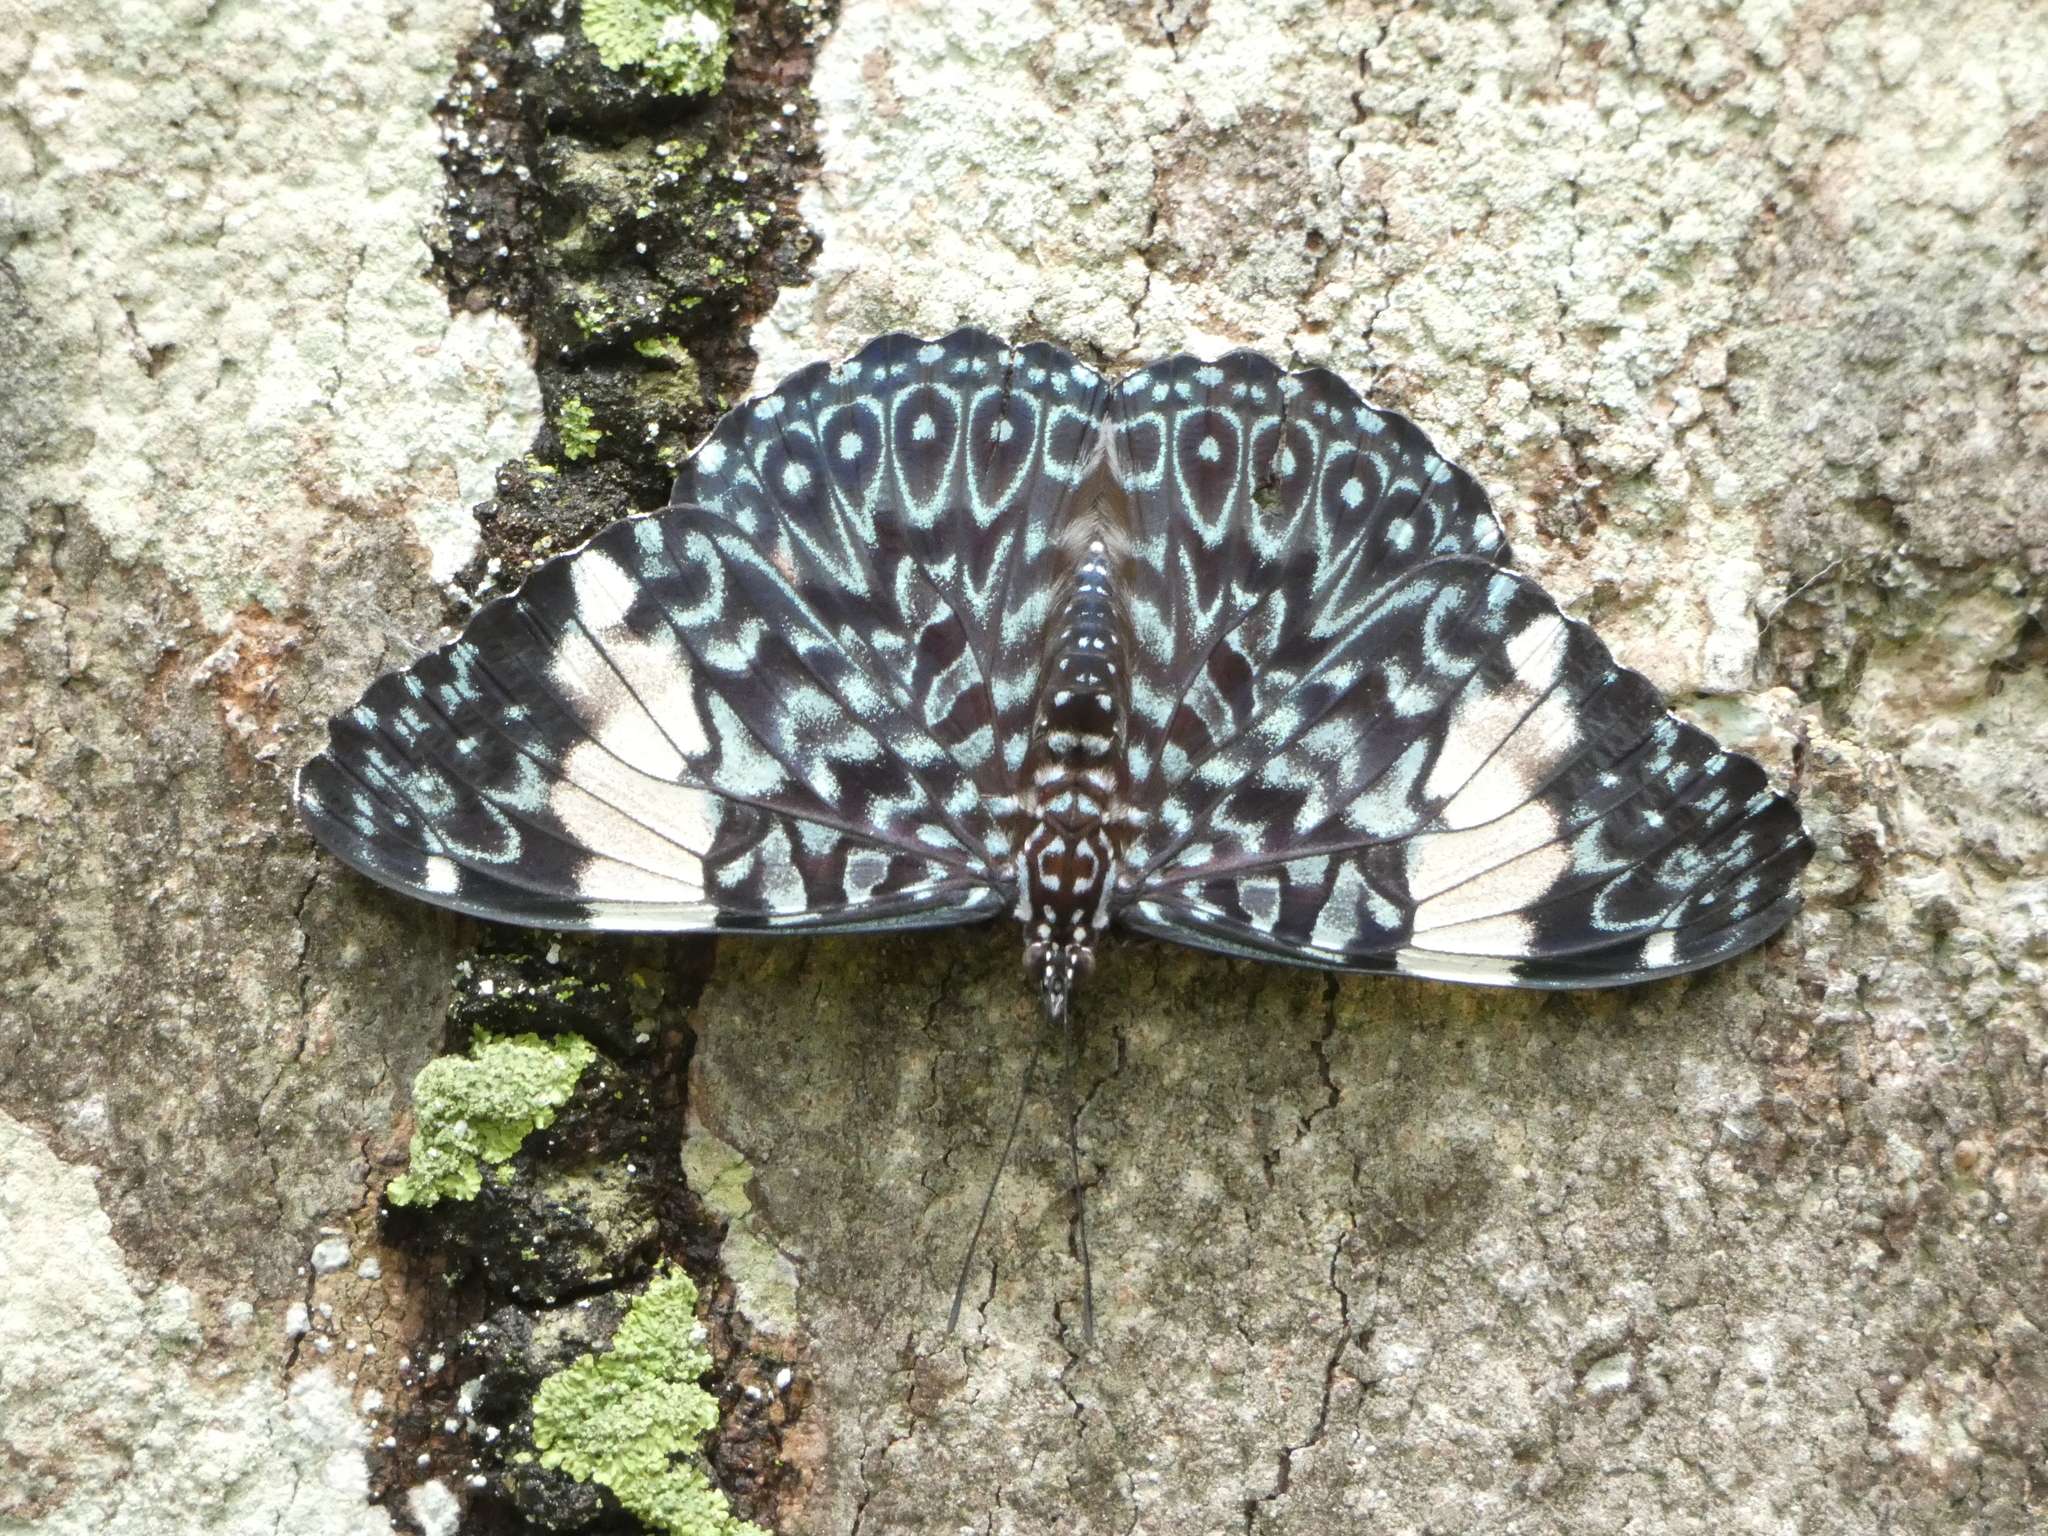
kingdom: Animalia
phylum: Arthropoda
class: Insecta
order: Lepidoptera
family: Nymphalidae
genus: Hamadryas
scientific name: Hamadryas amphinome
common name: Red cracker
